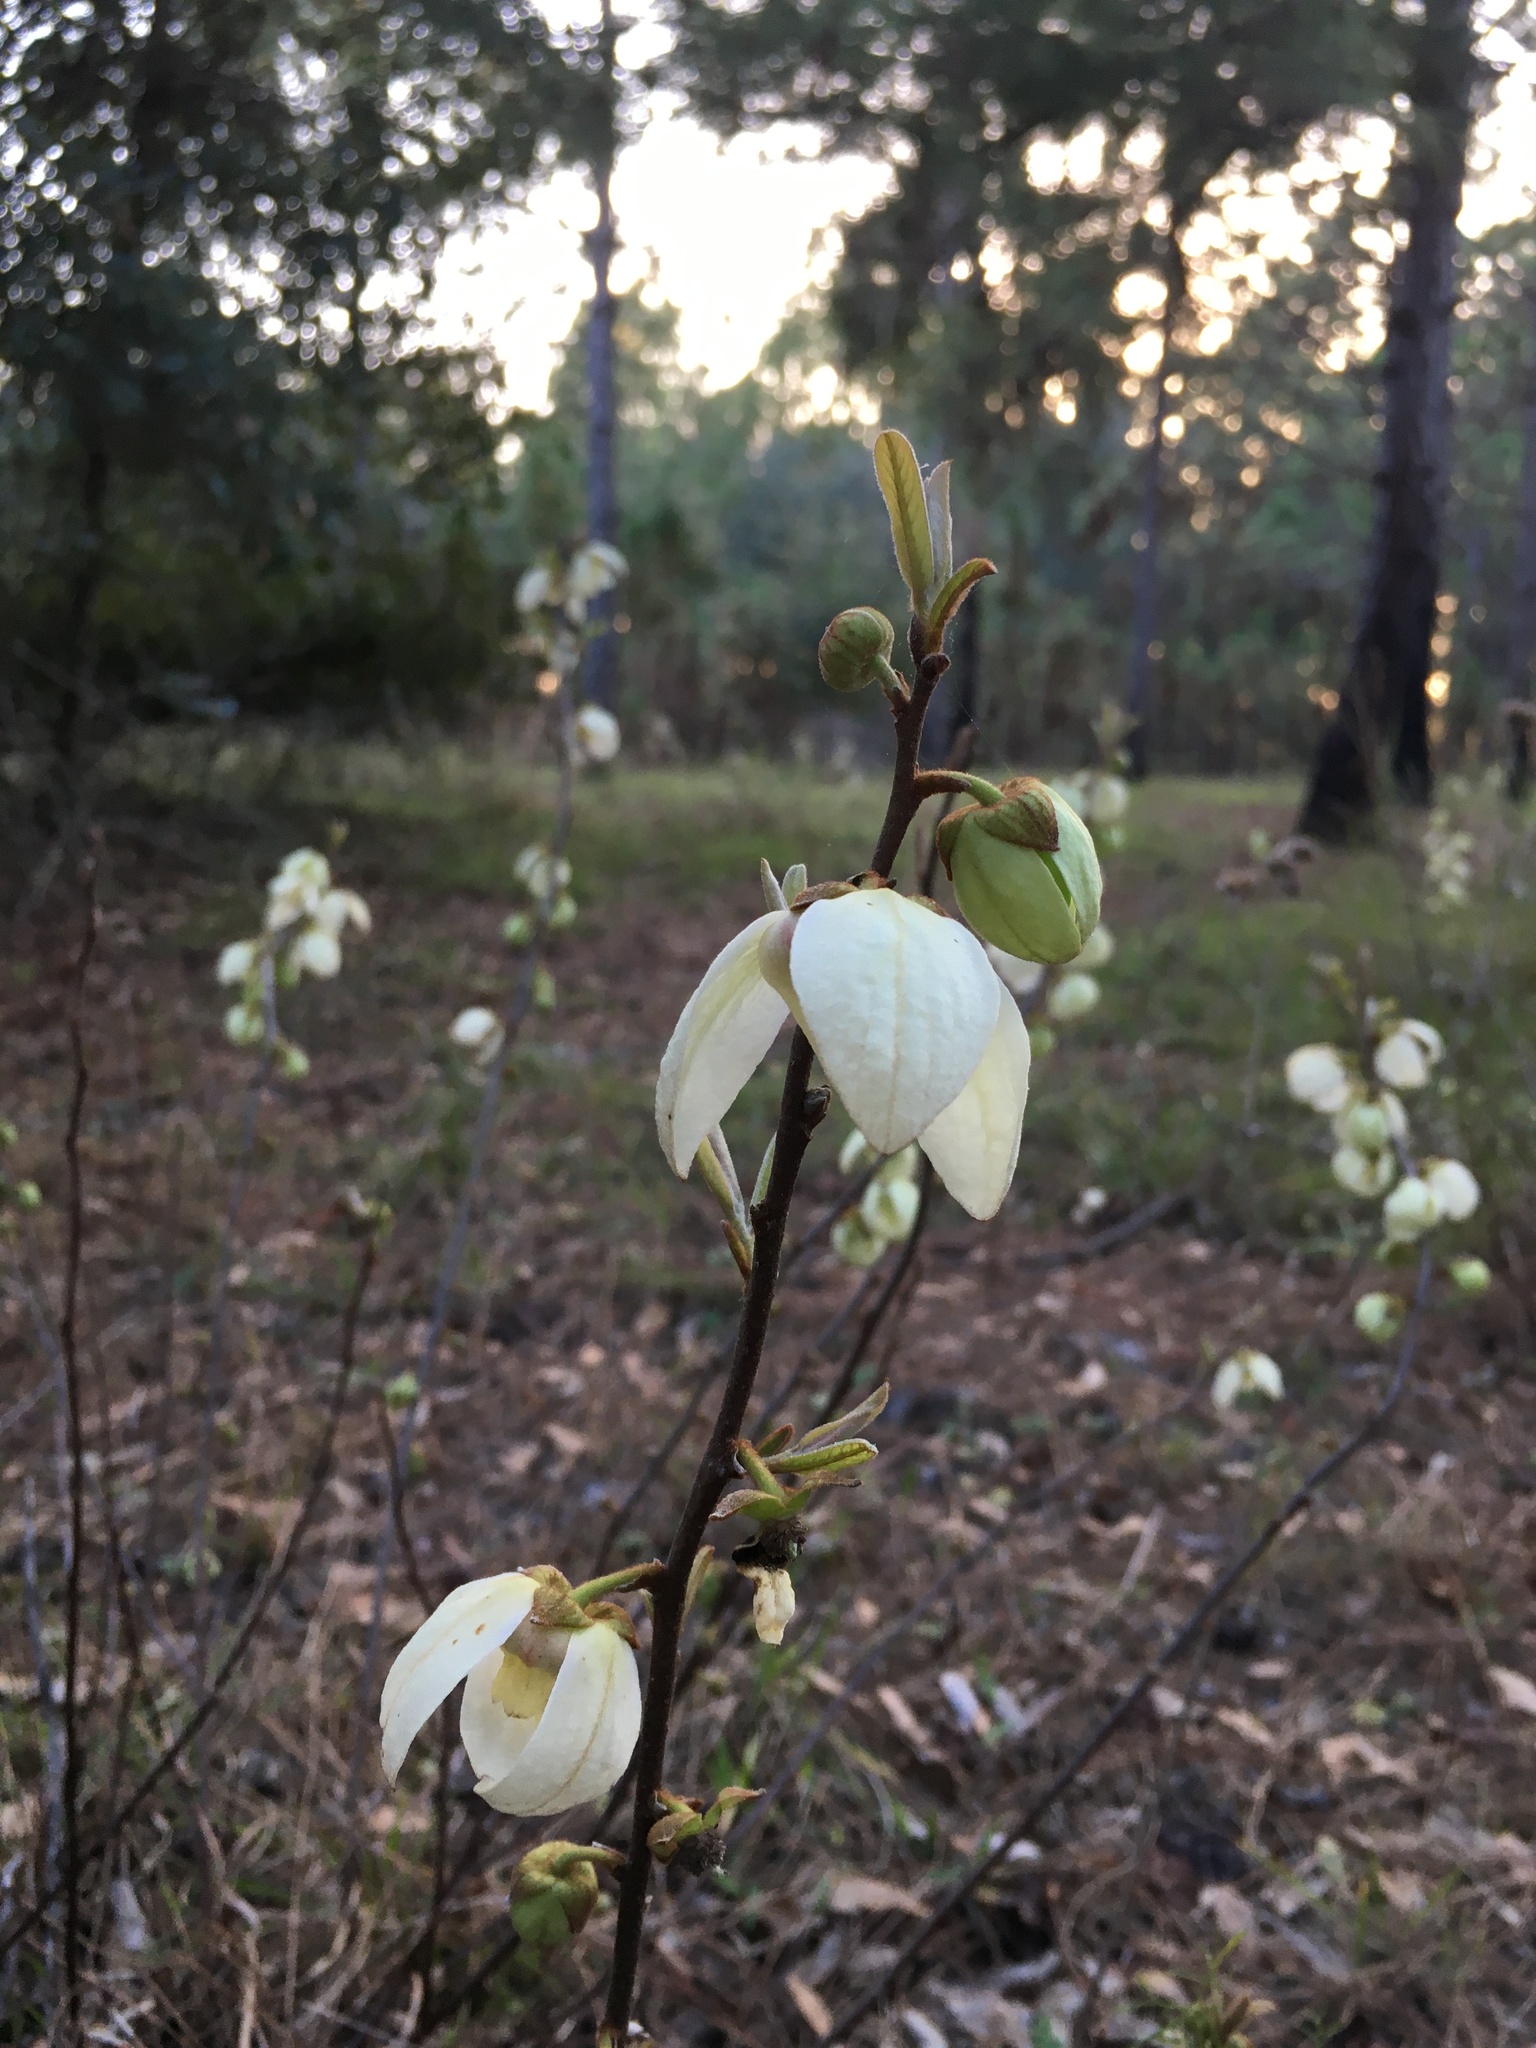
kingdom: Plantae
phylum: Tracheophyta
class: Magnoliopsida
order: Magnoliales
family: Annonaceae
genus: Asimina
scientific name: Asimina reticulata
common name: Flag pawpaw
